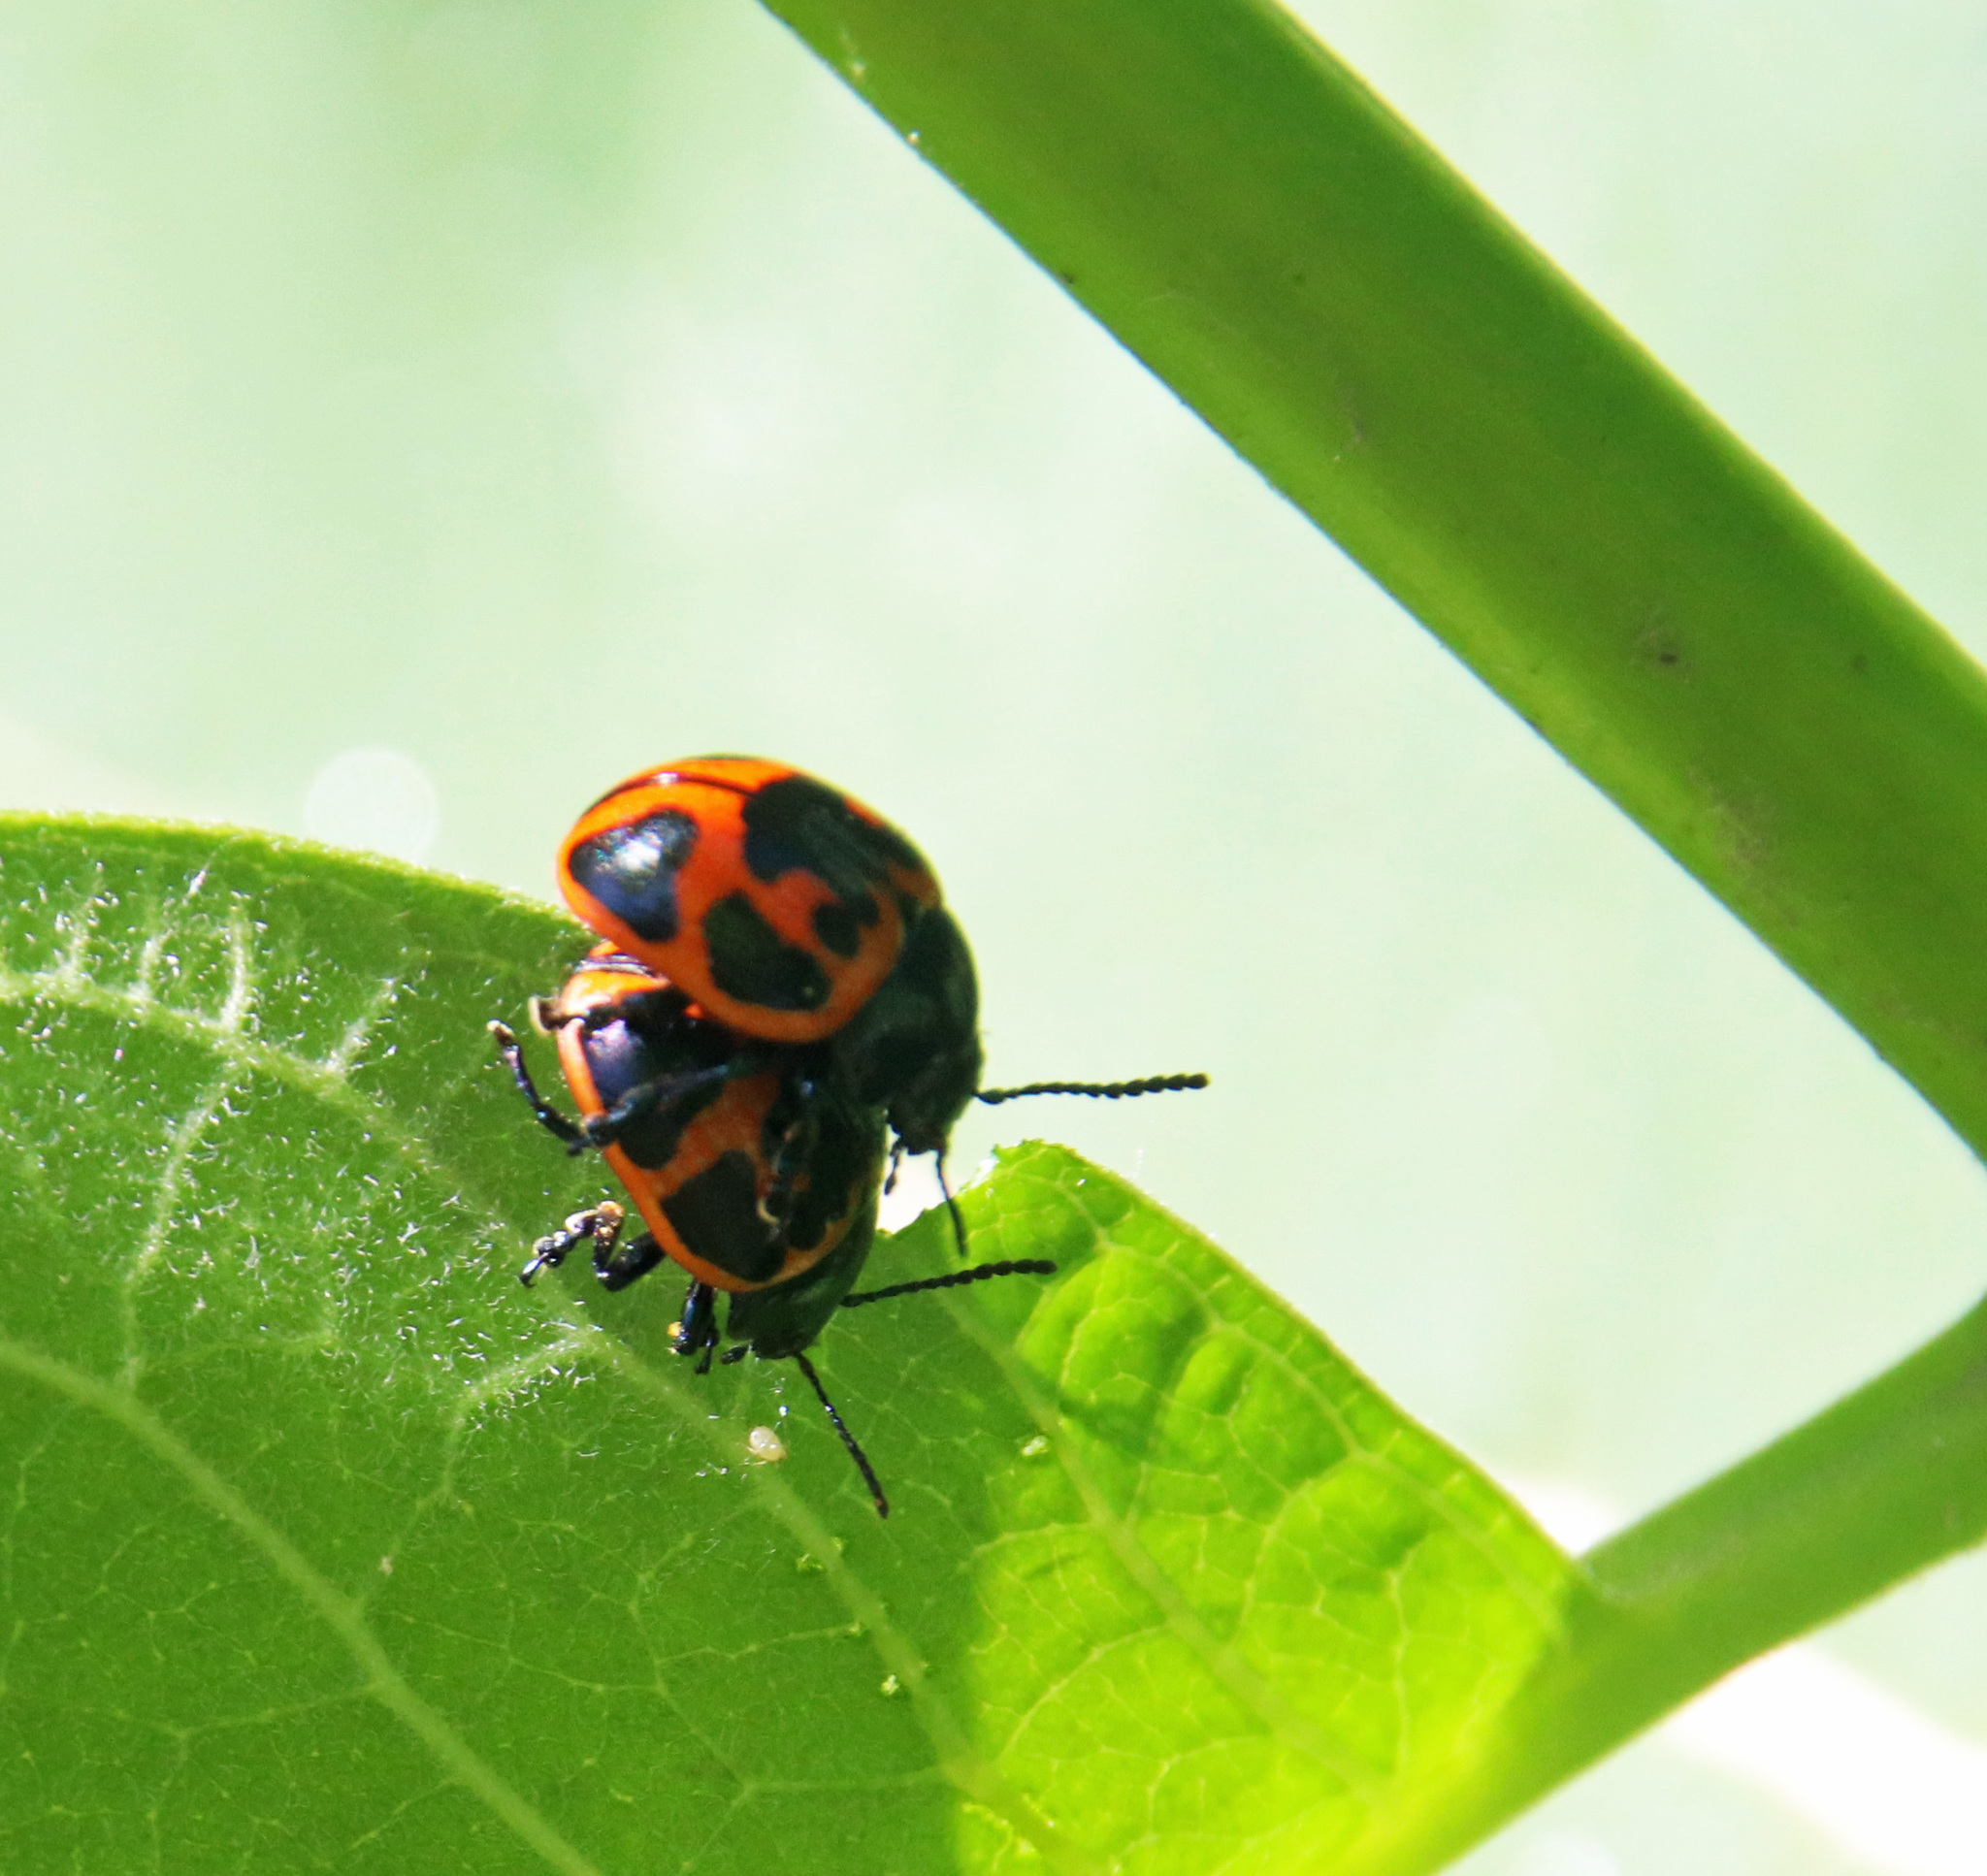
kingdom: Animalia
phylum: Arthropoda
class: Insecta
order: Coleoptera
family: Chrysomelidae
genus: Labidomera
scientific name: Labidomera clivicollis
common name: Swamp milkweed leaf beetle
